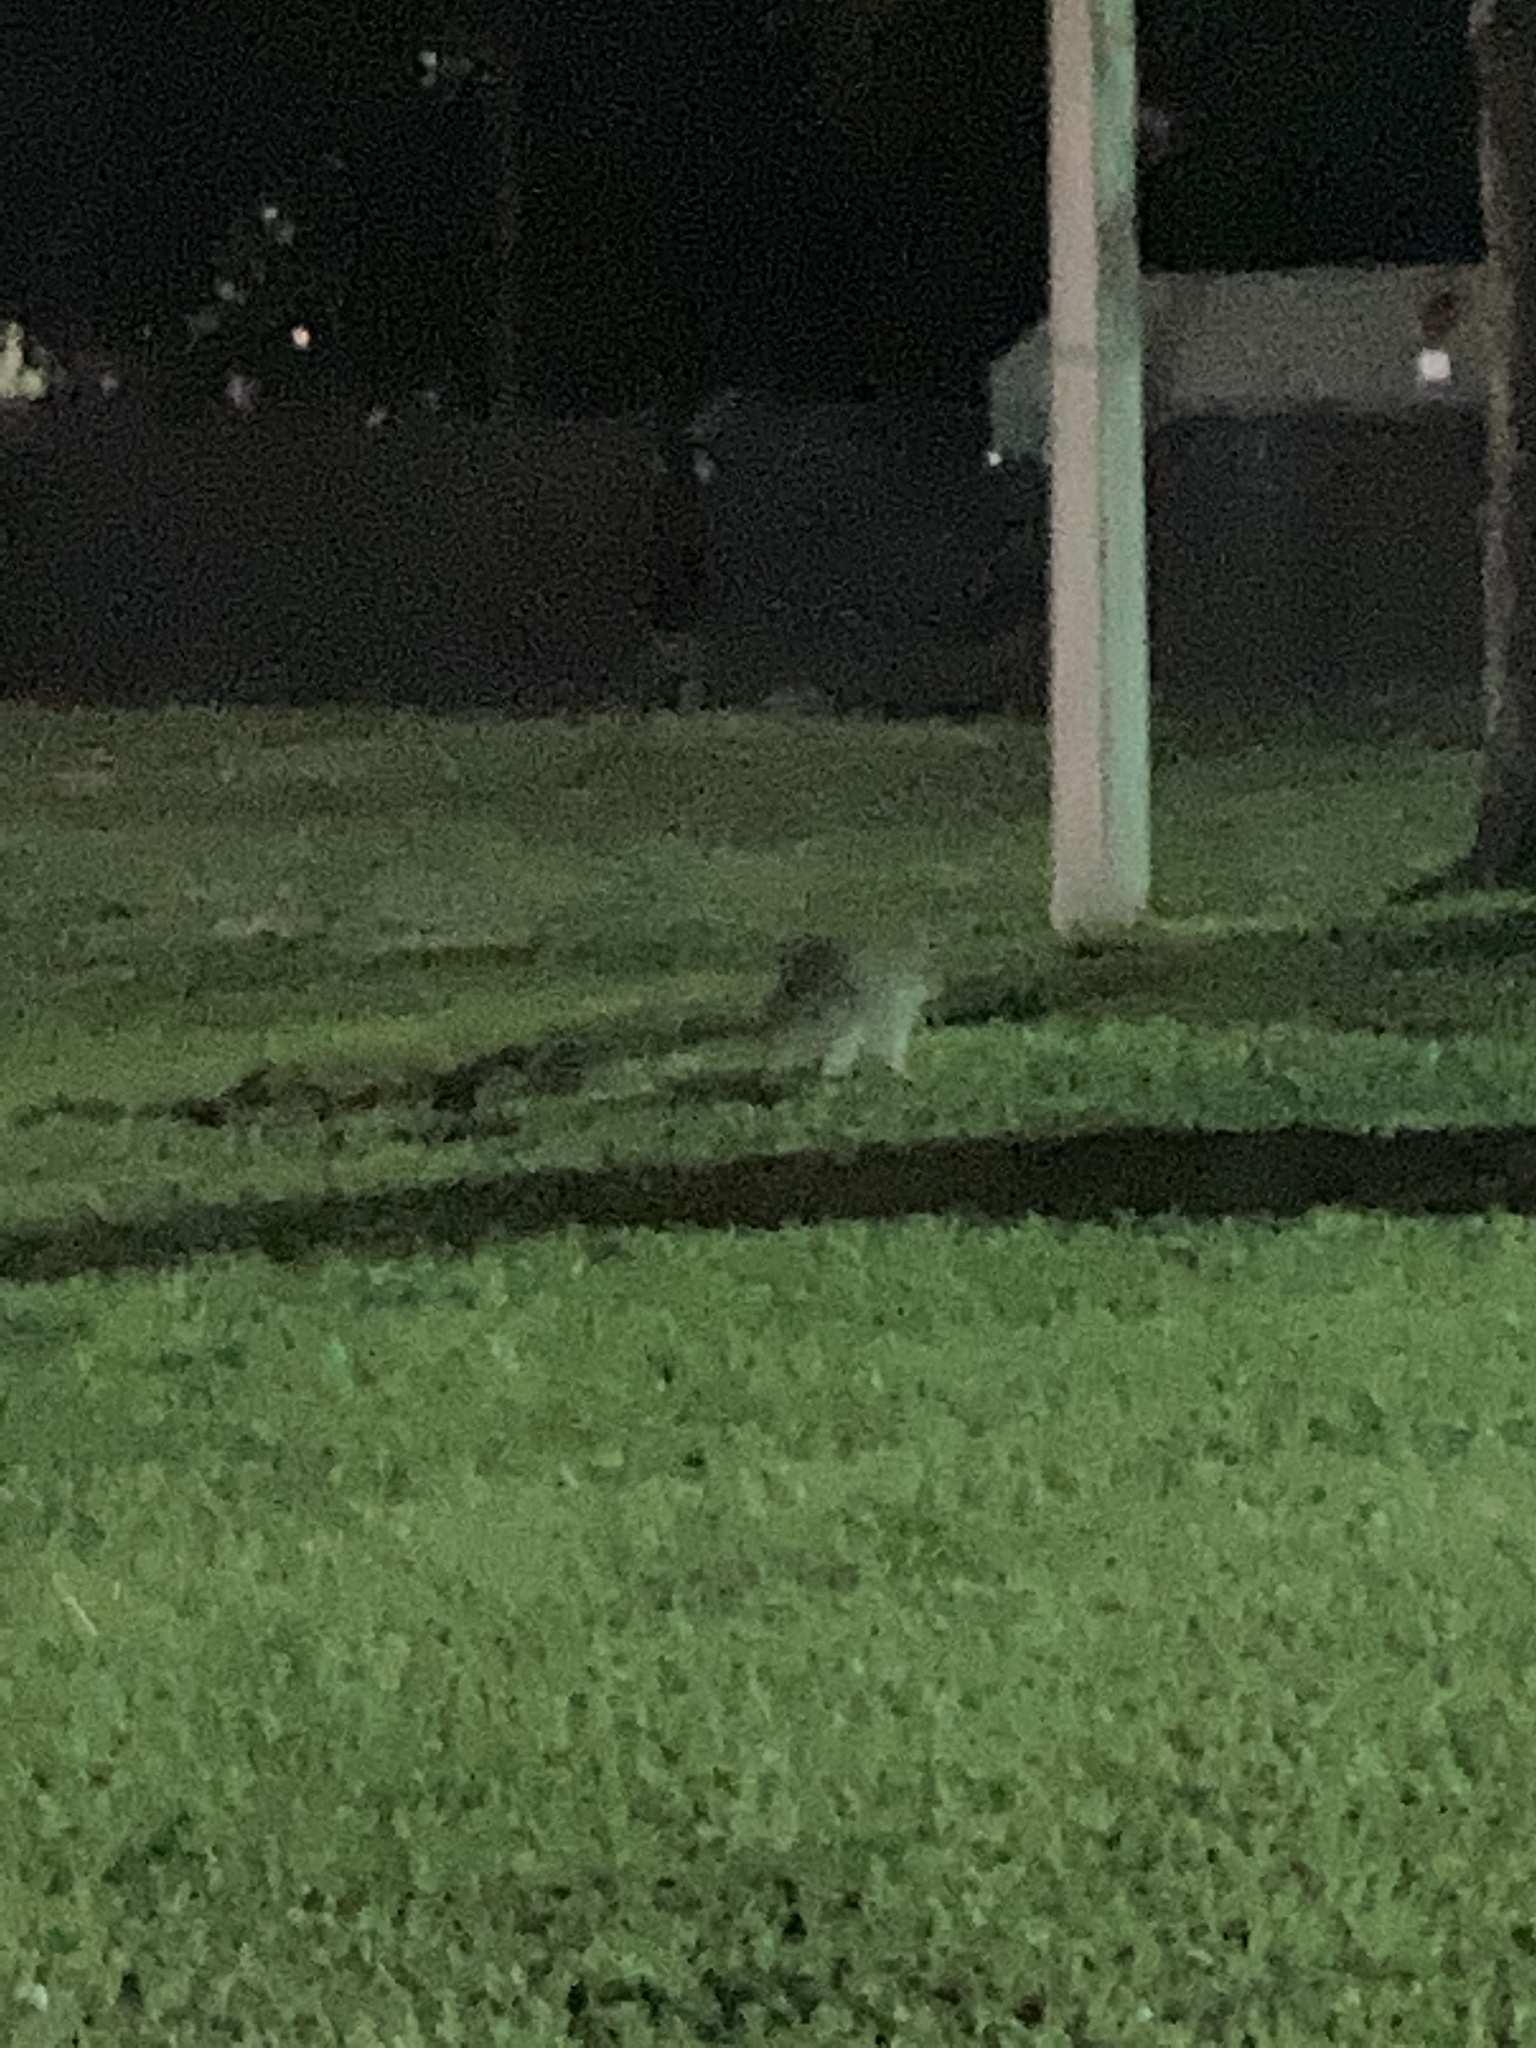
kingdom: Animalia
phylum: Chordata
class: Mammalia
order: Carnivora
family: Procyonidae
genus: Procyon
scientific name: Procyon lotor
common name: Raccoon
